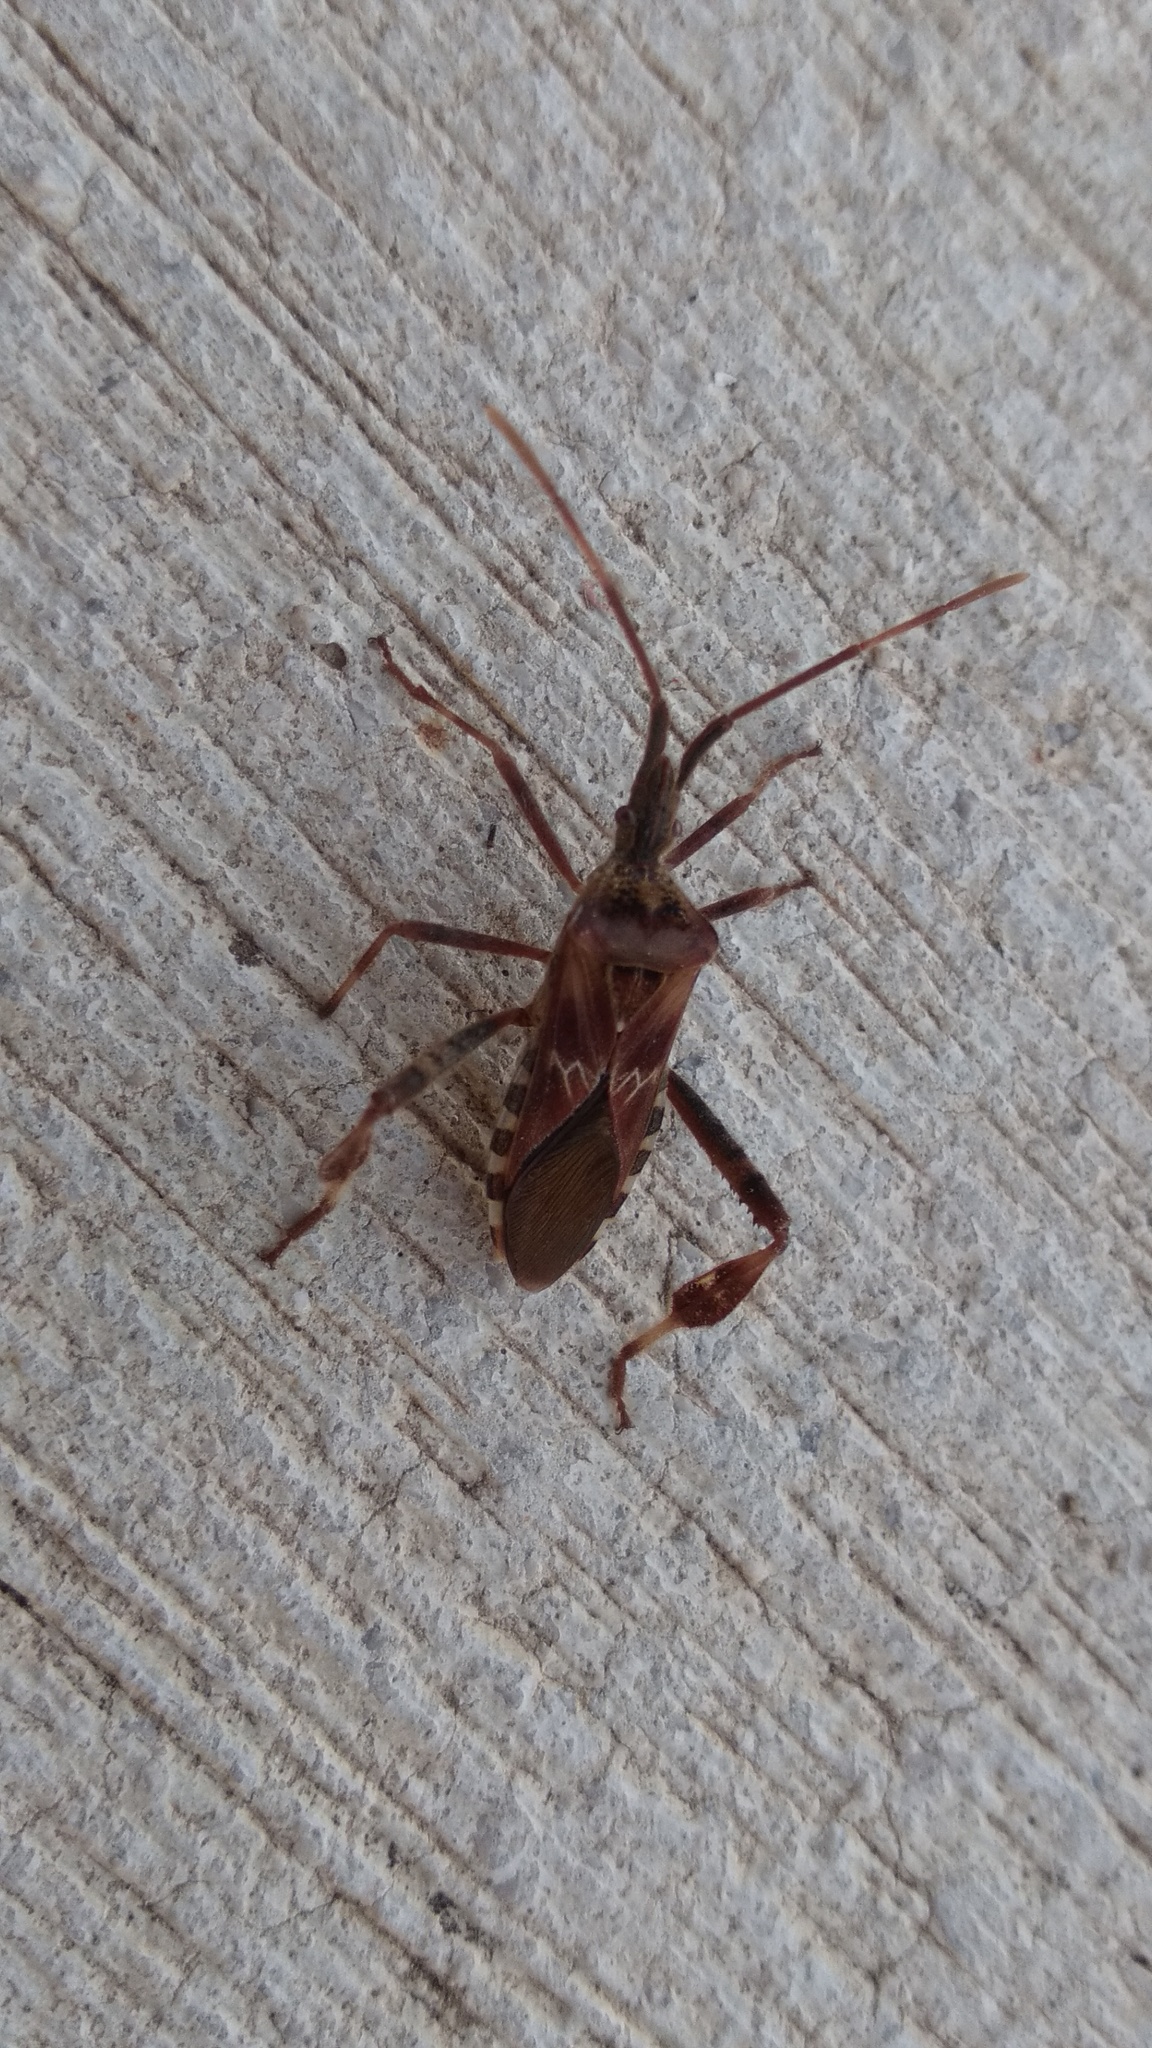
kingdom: Animalia
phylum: Arthropoda
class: Insecta
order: Hemiptera
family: Coreidae
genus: Leptoglossus
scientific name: Leptoglossus occidentalis
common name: Western conifer-seed bug
